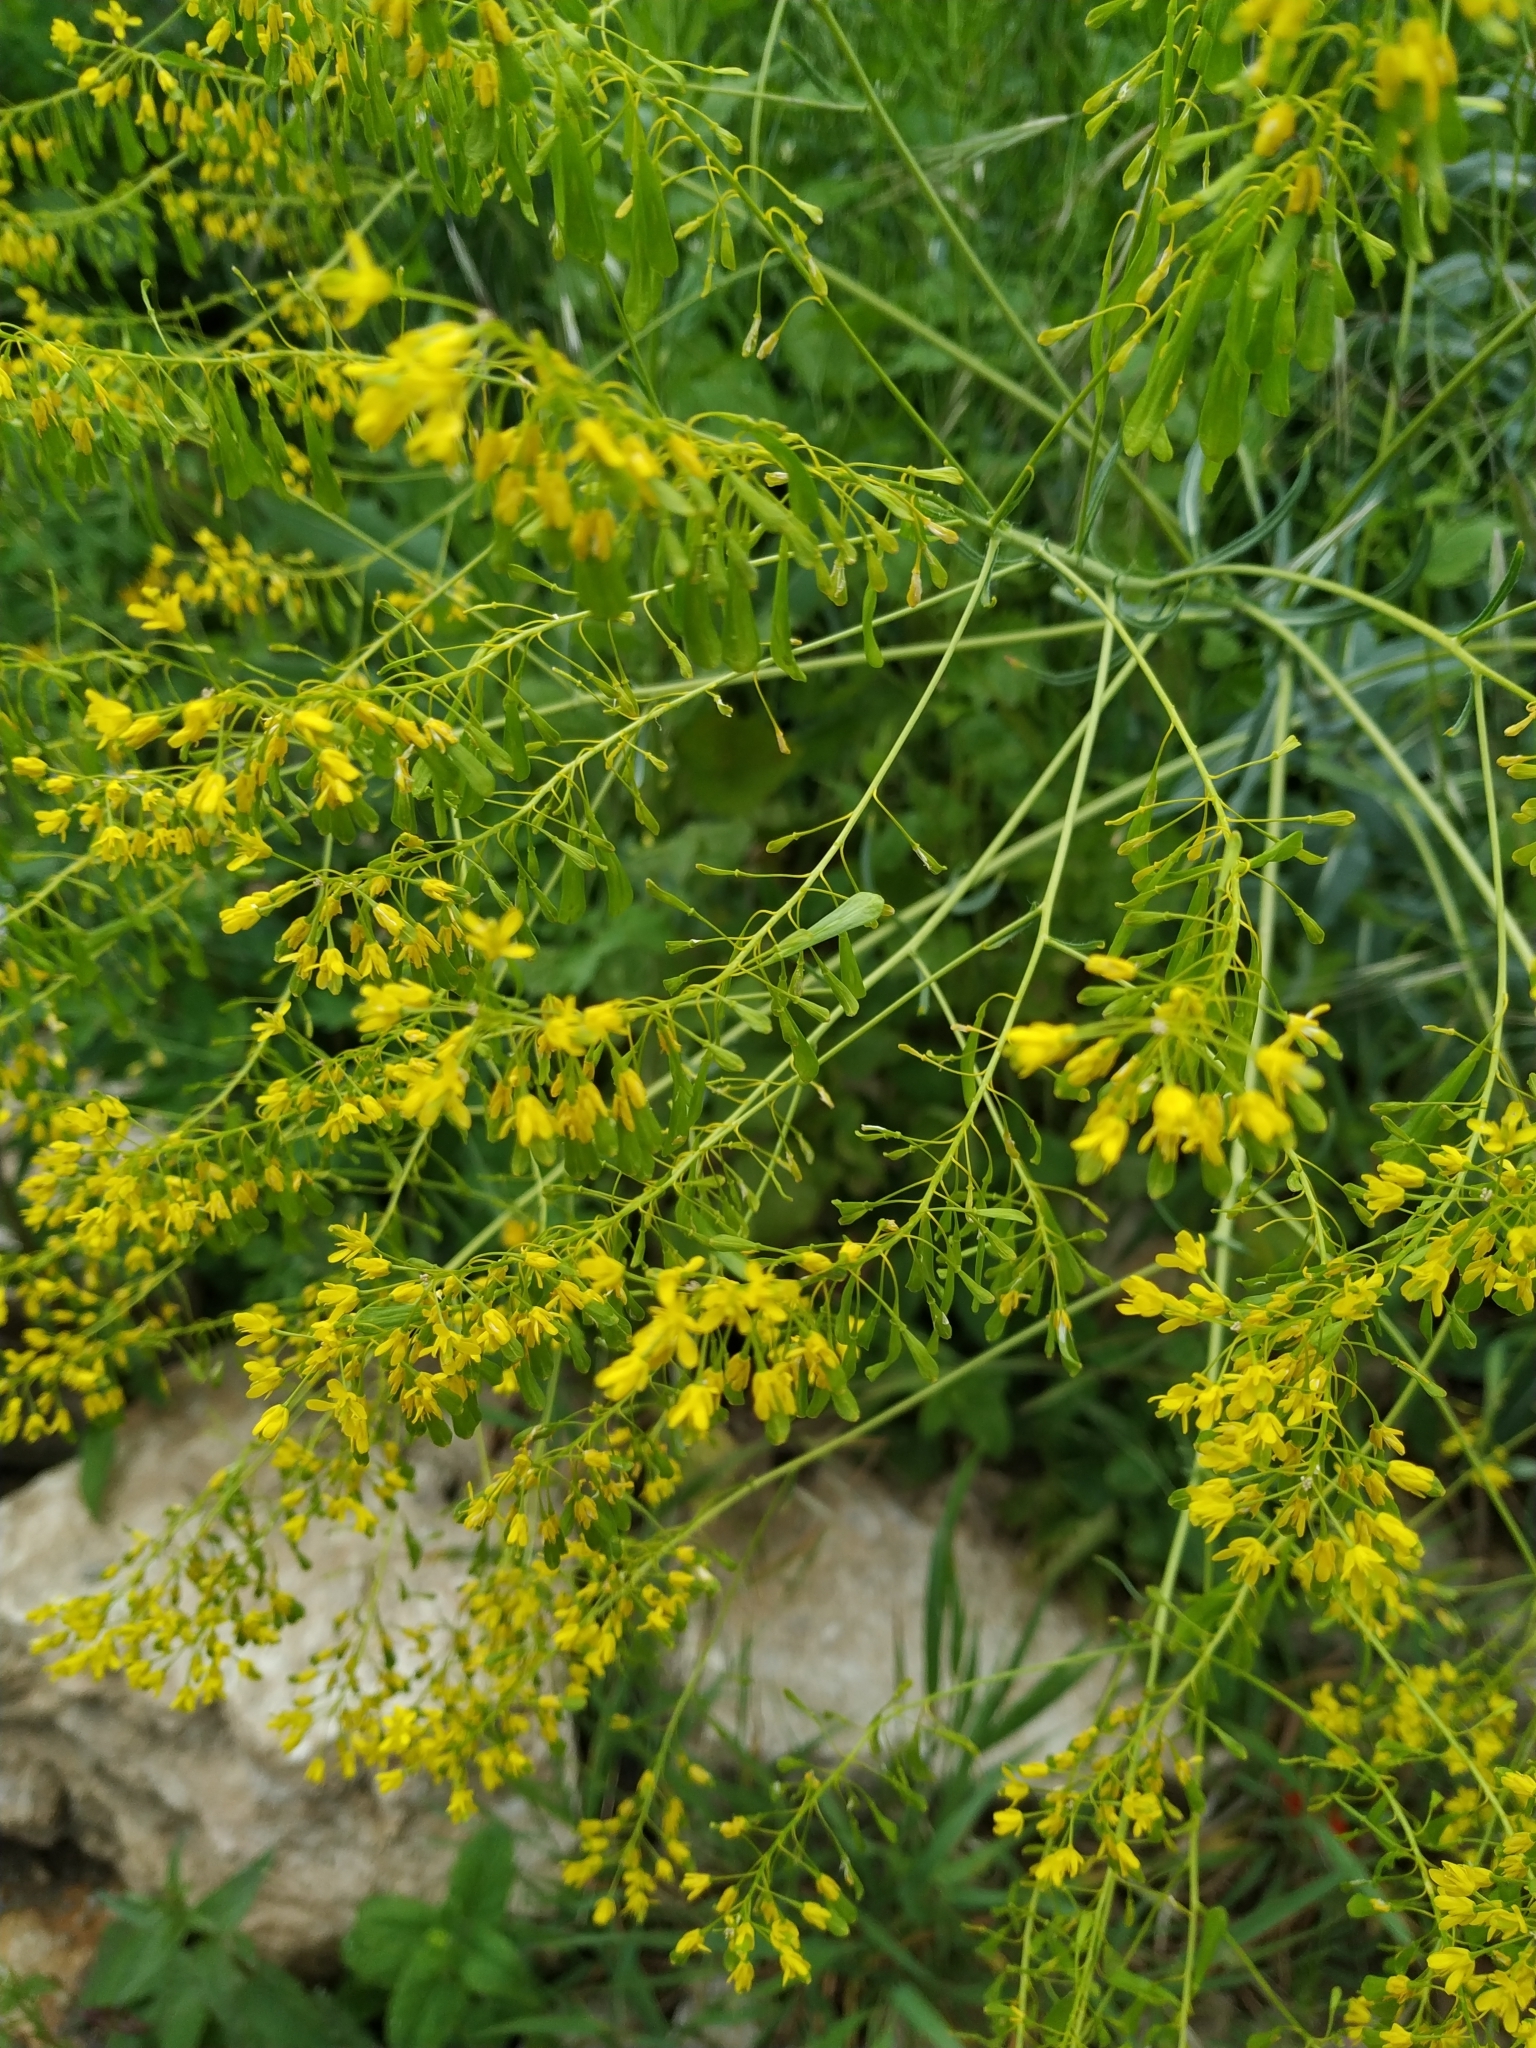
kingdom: Plantae
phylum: Tracheophyta
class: Magnoliopsida
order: Brassicales
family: Brassicaceae
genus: Isatis
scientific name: Isatis tinctoria
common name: Woad
